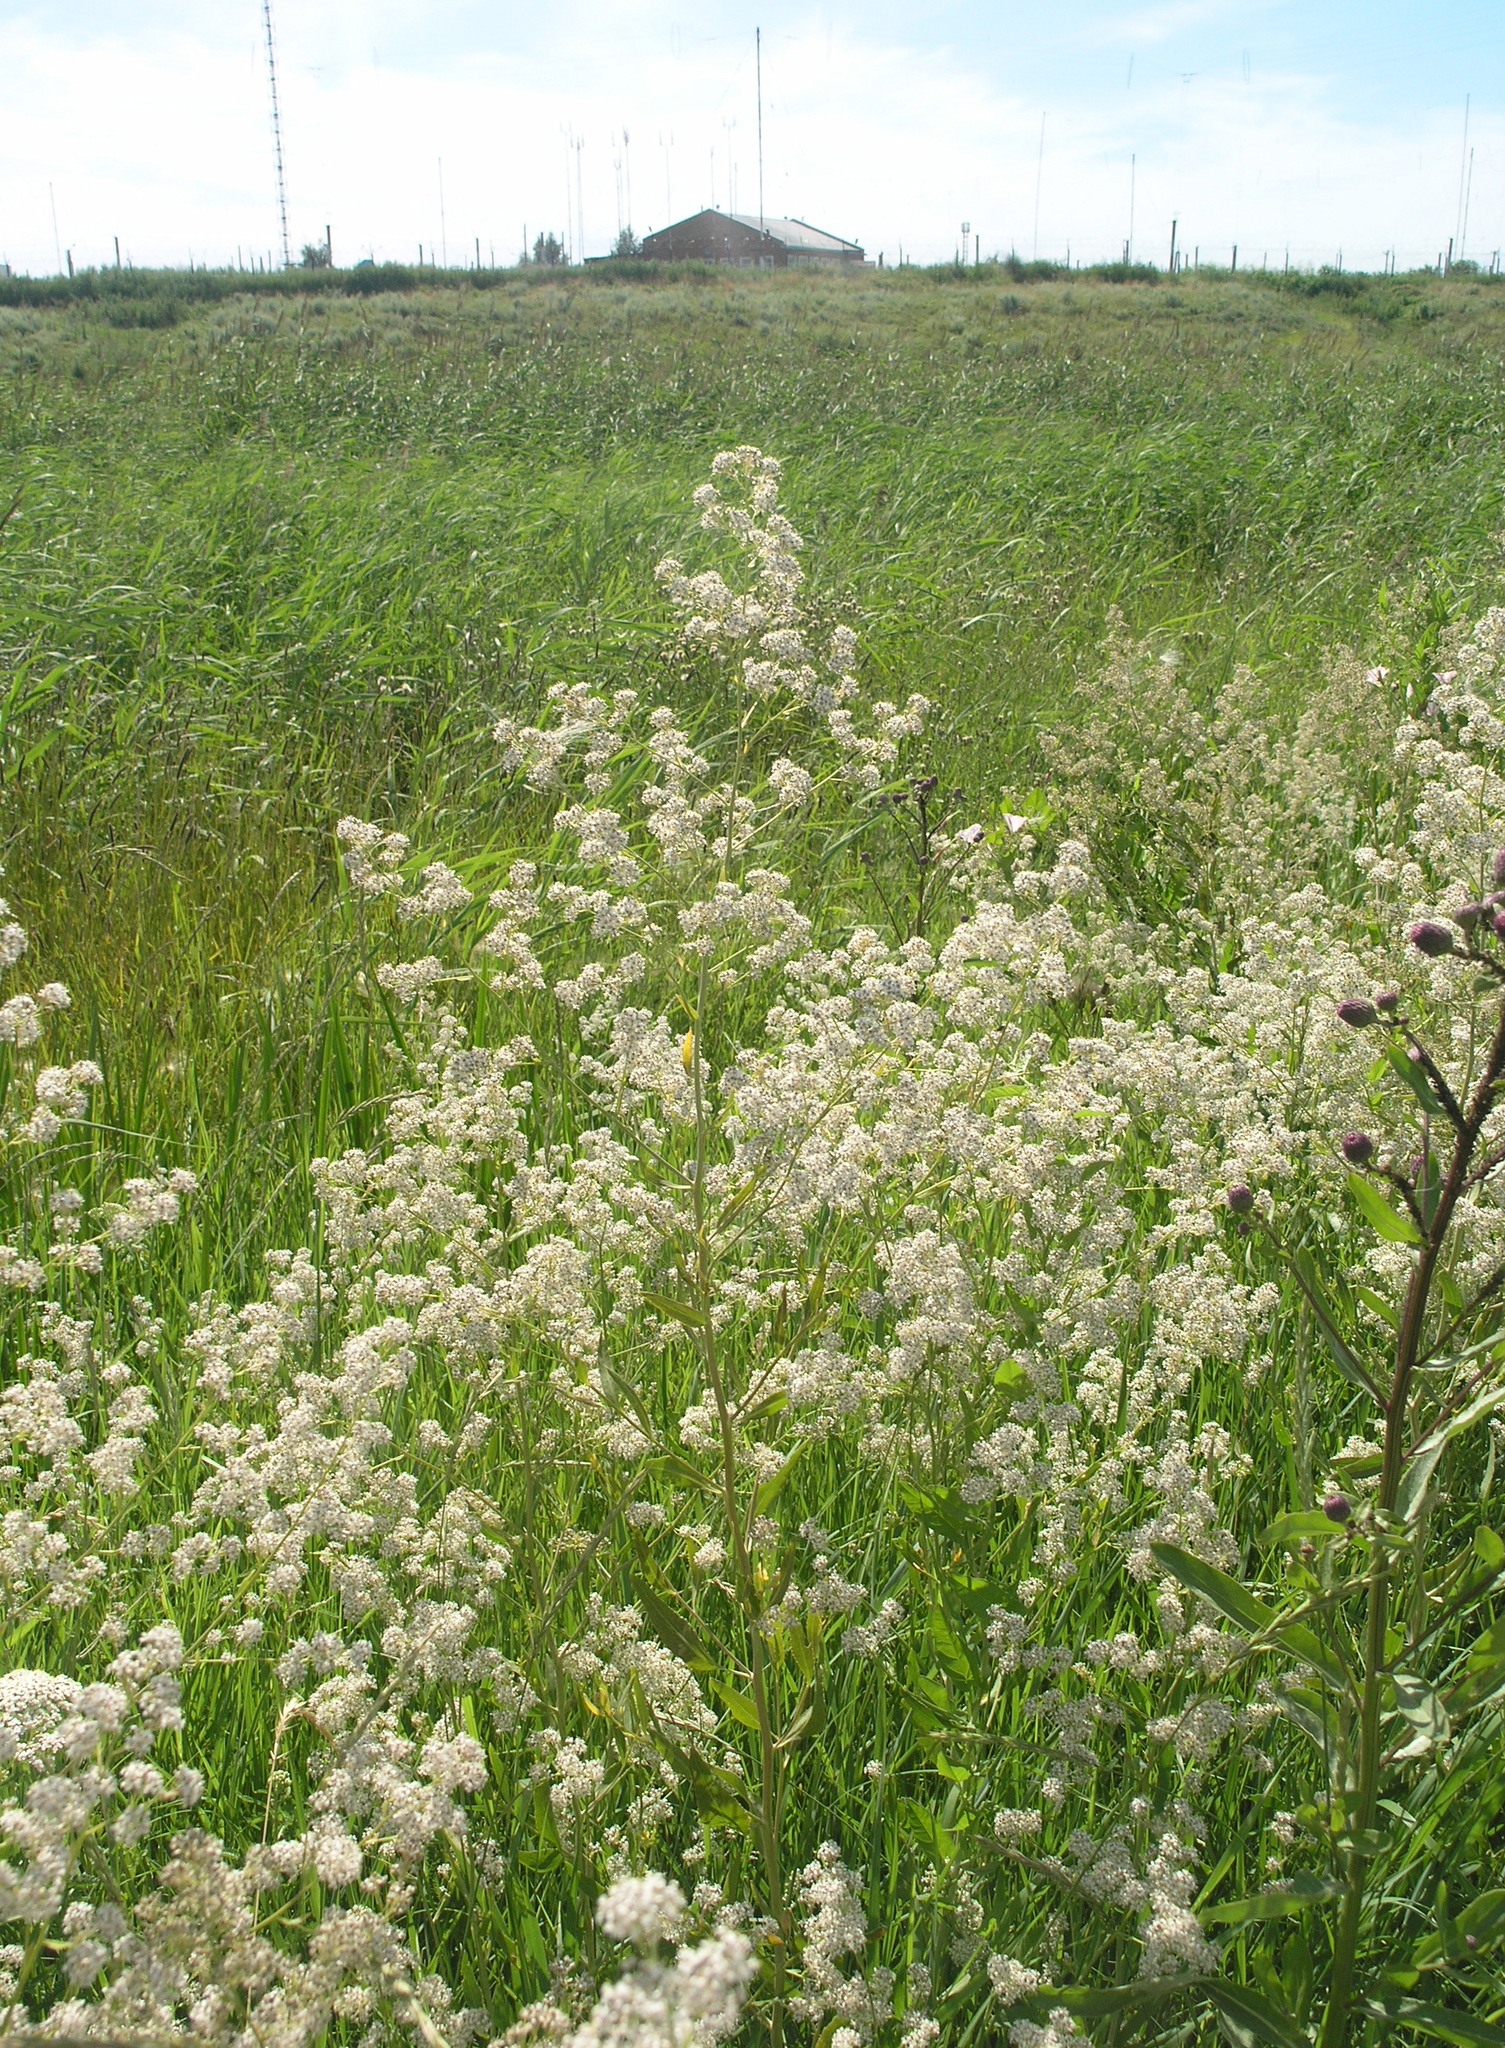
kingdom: Plantae
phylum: Tracheophyta
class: Magnoliopsida
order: Brassicales
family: Brassicaceae
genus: Lepidium
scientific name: Lepidium latifolium
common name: Dittander
